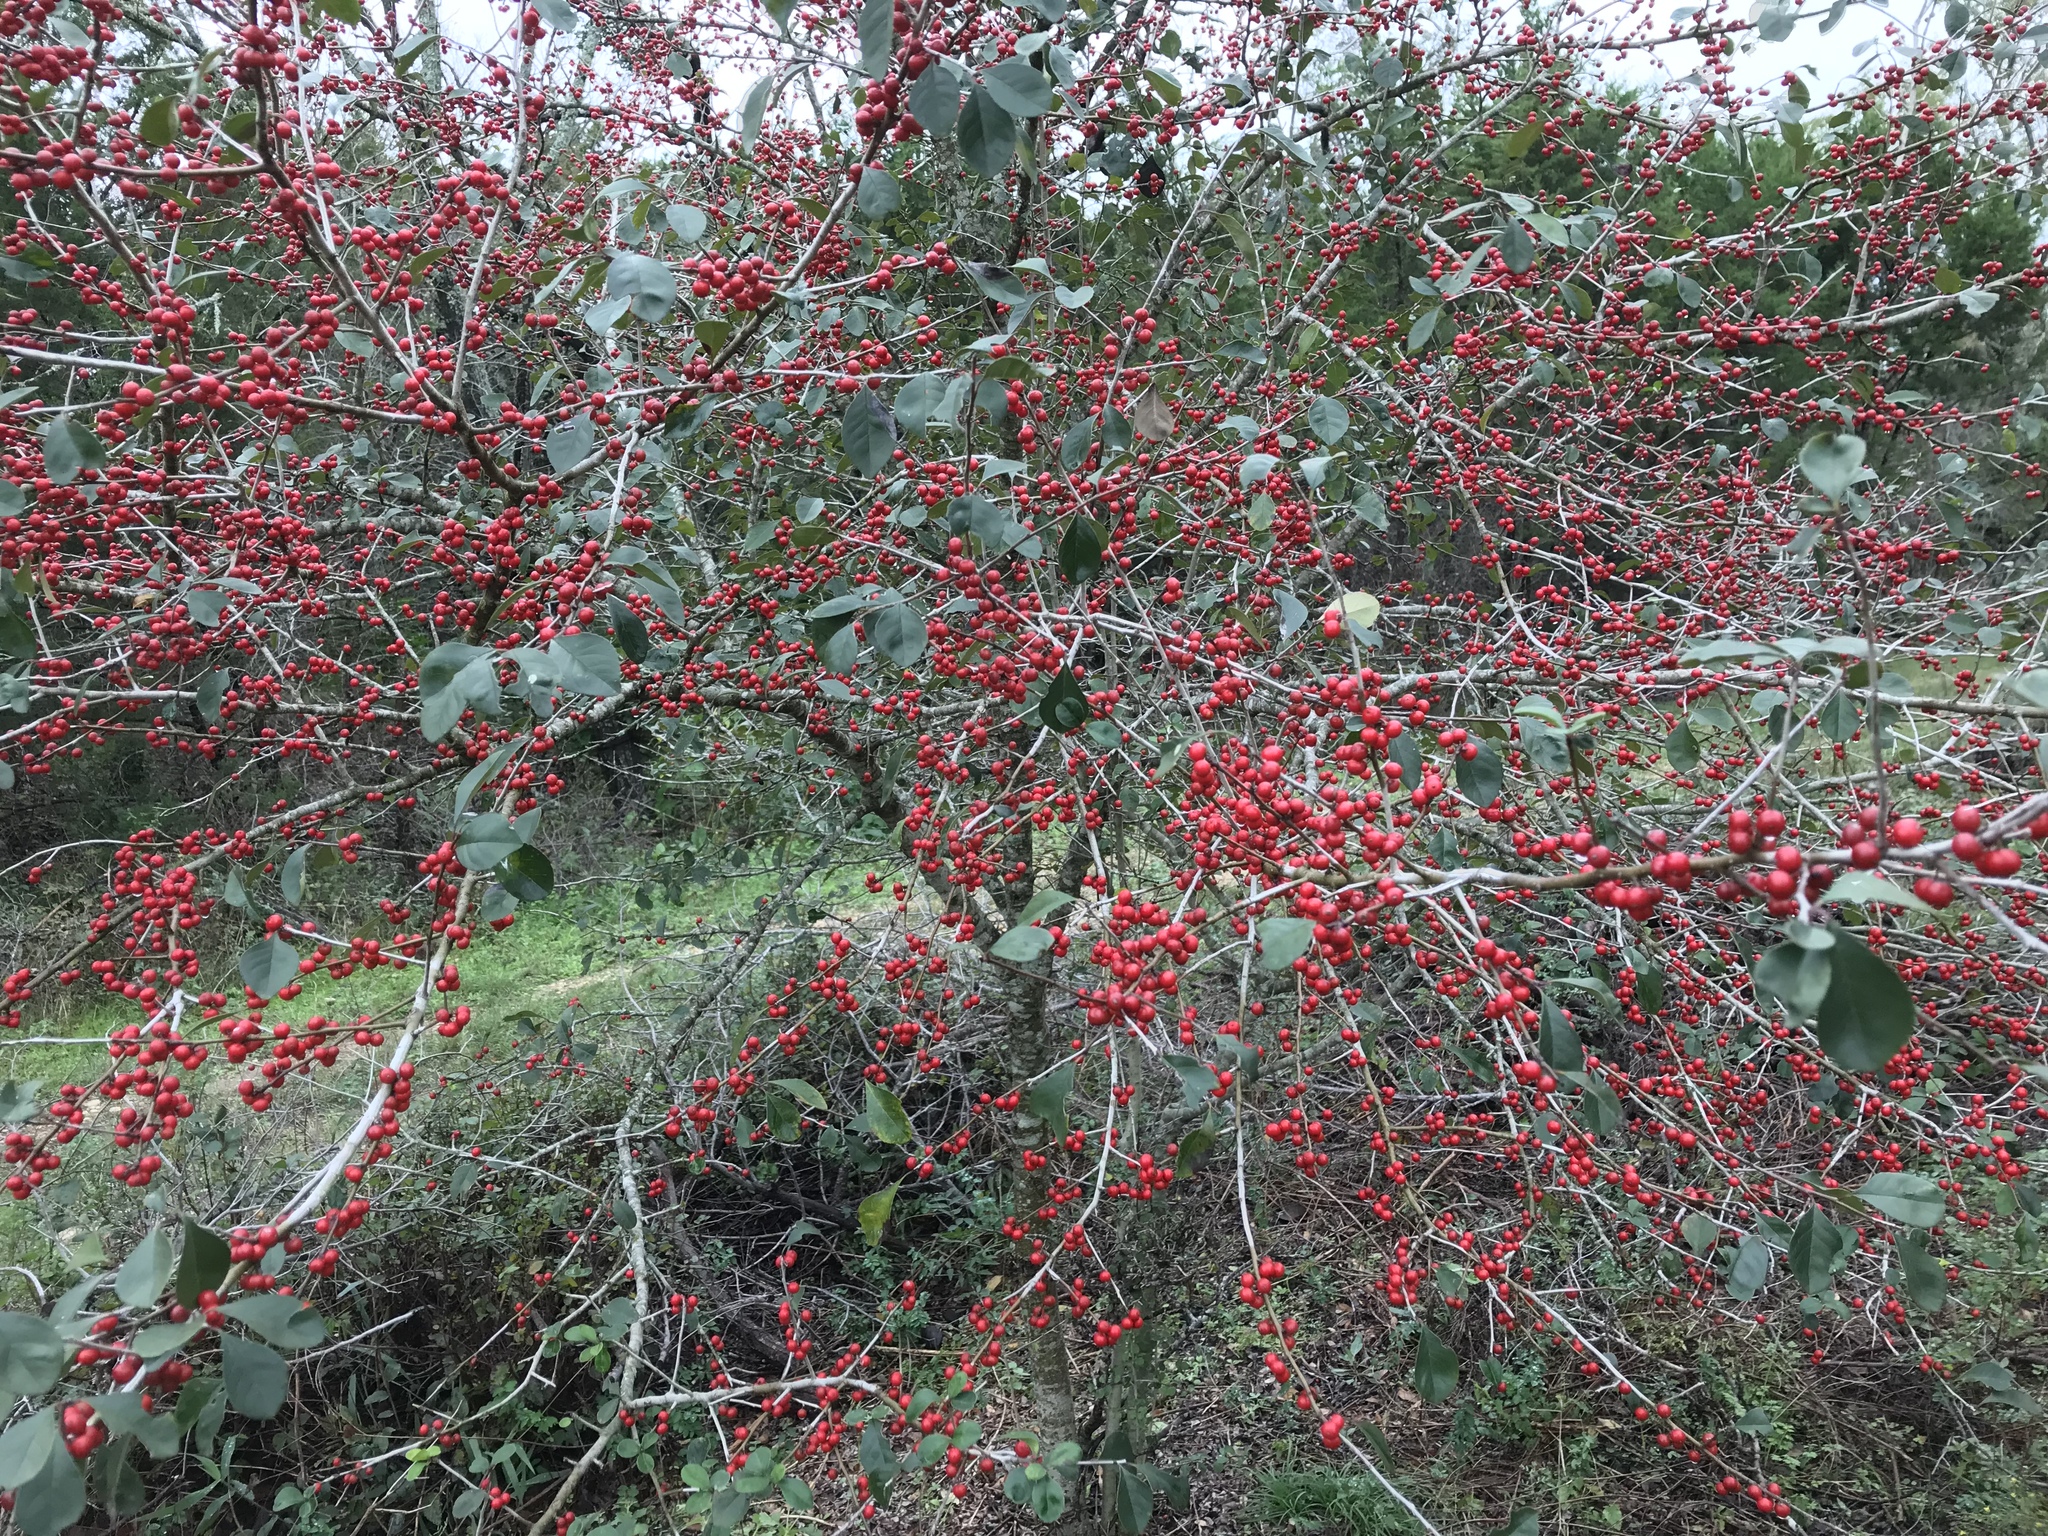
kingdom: Plantae
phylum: Tracheophyta
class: Magnoliopsida
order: Aquifoliales
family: Aquifoliaceae
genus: Ilex
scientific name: Ilex decidua
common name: Possum-haw
